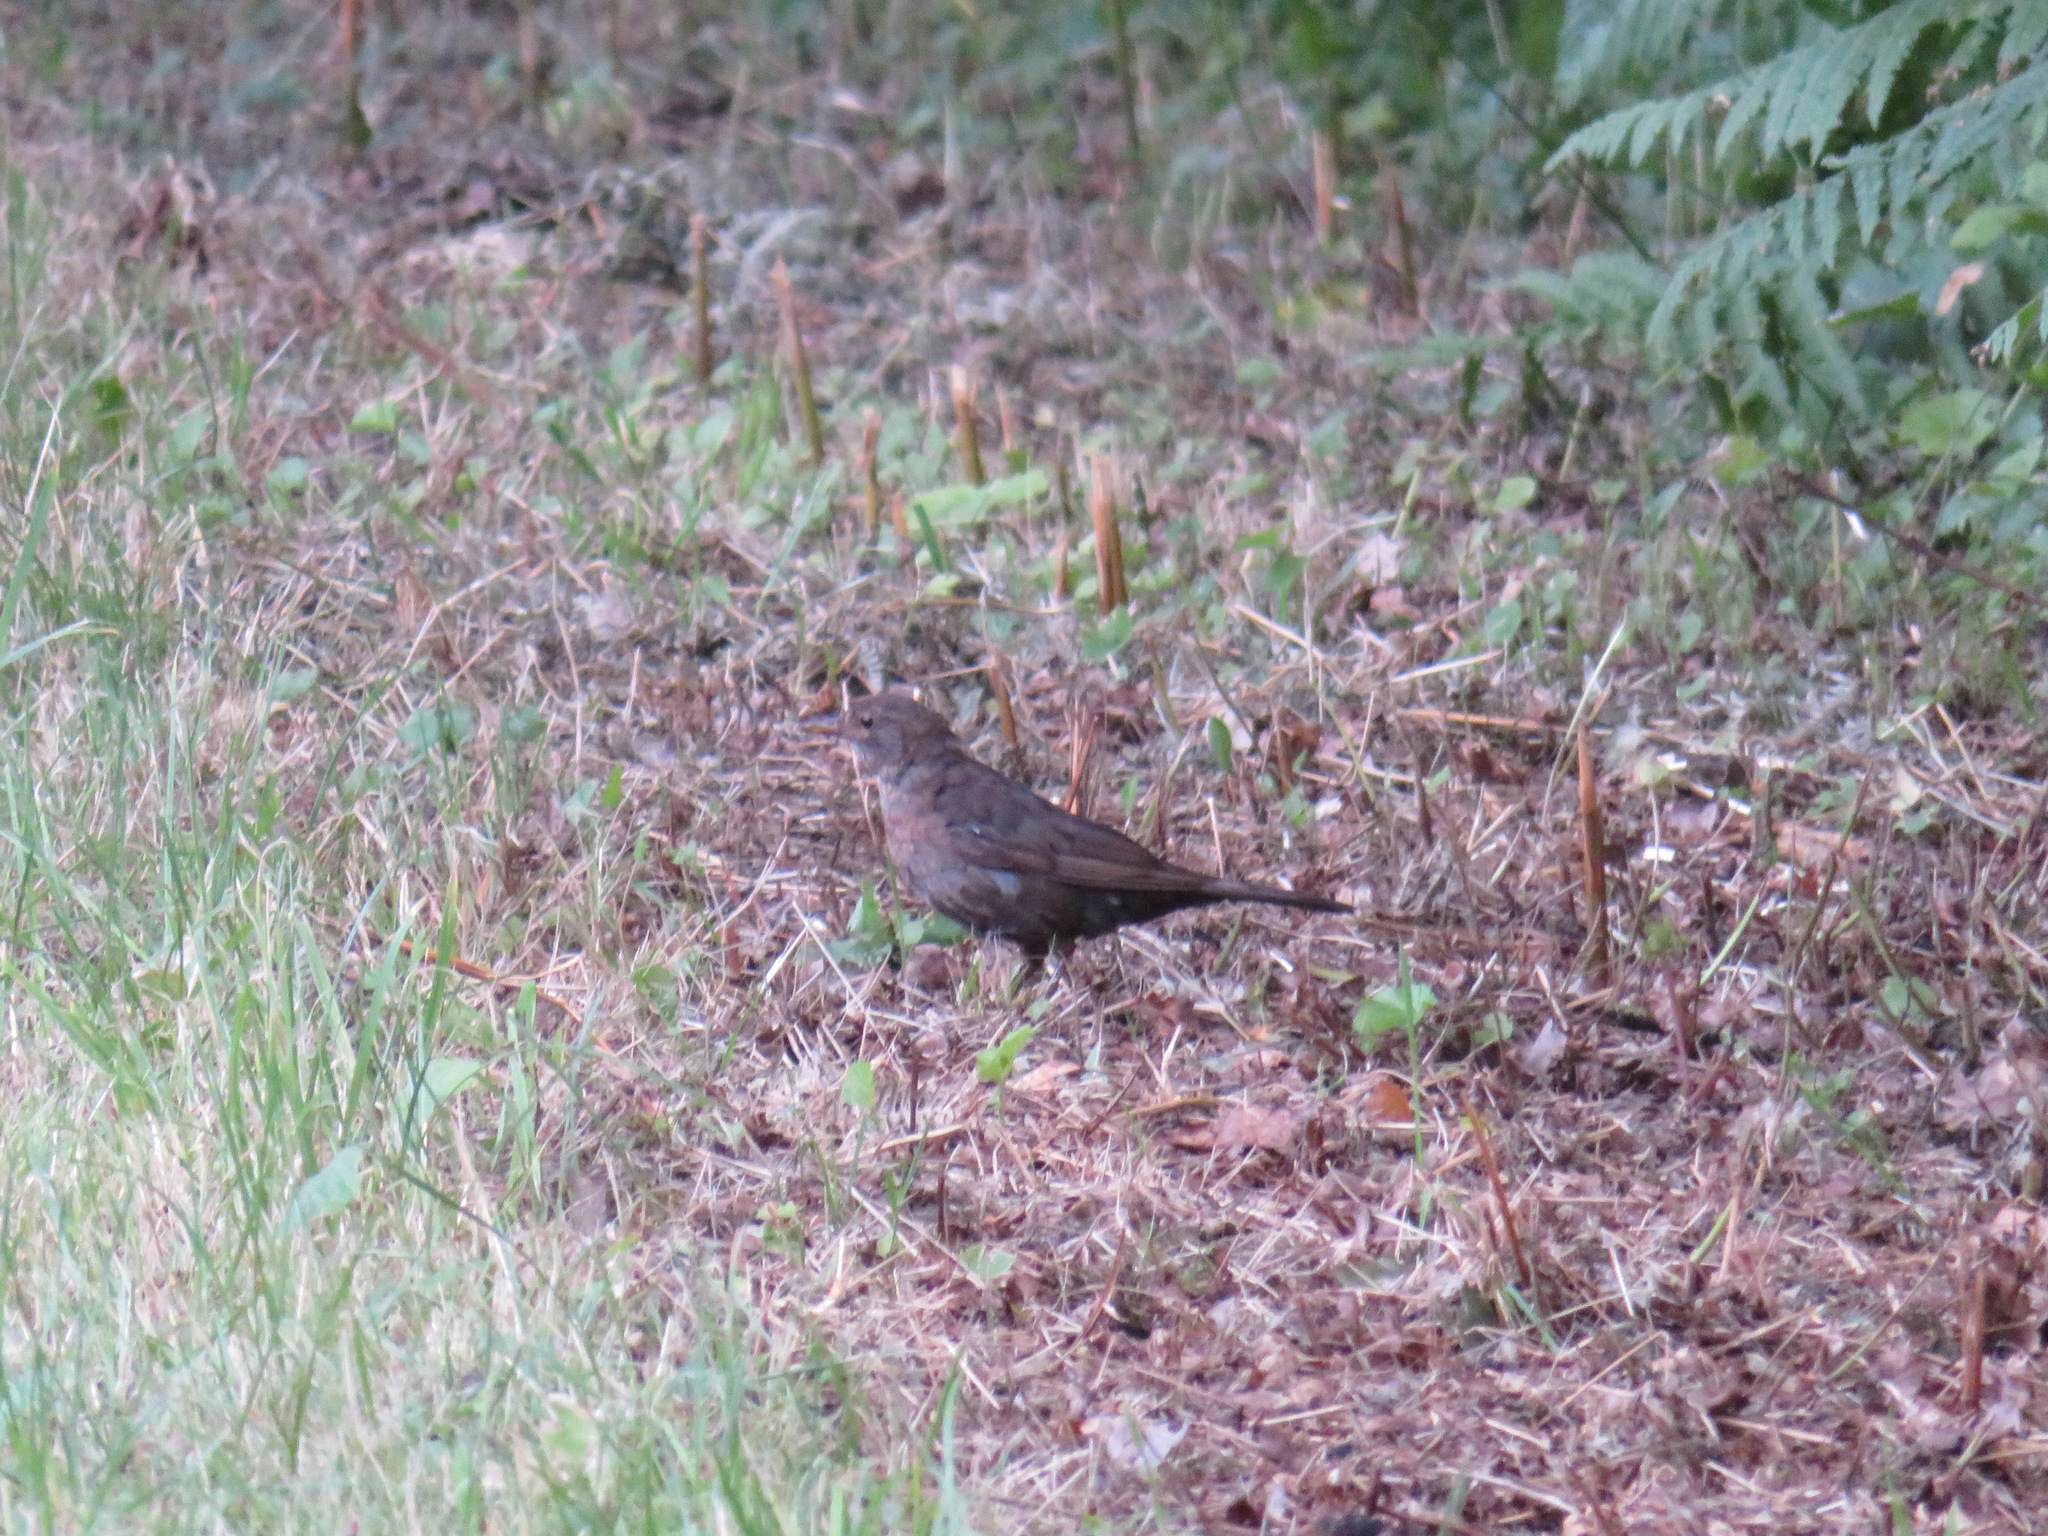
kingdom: Animalia
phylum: Chordata
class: Aves
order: Passeriformes
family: Turdidae
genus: Turdus
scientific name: Turdus merula
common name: Common blackbird
